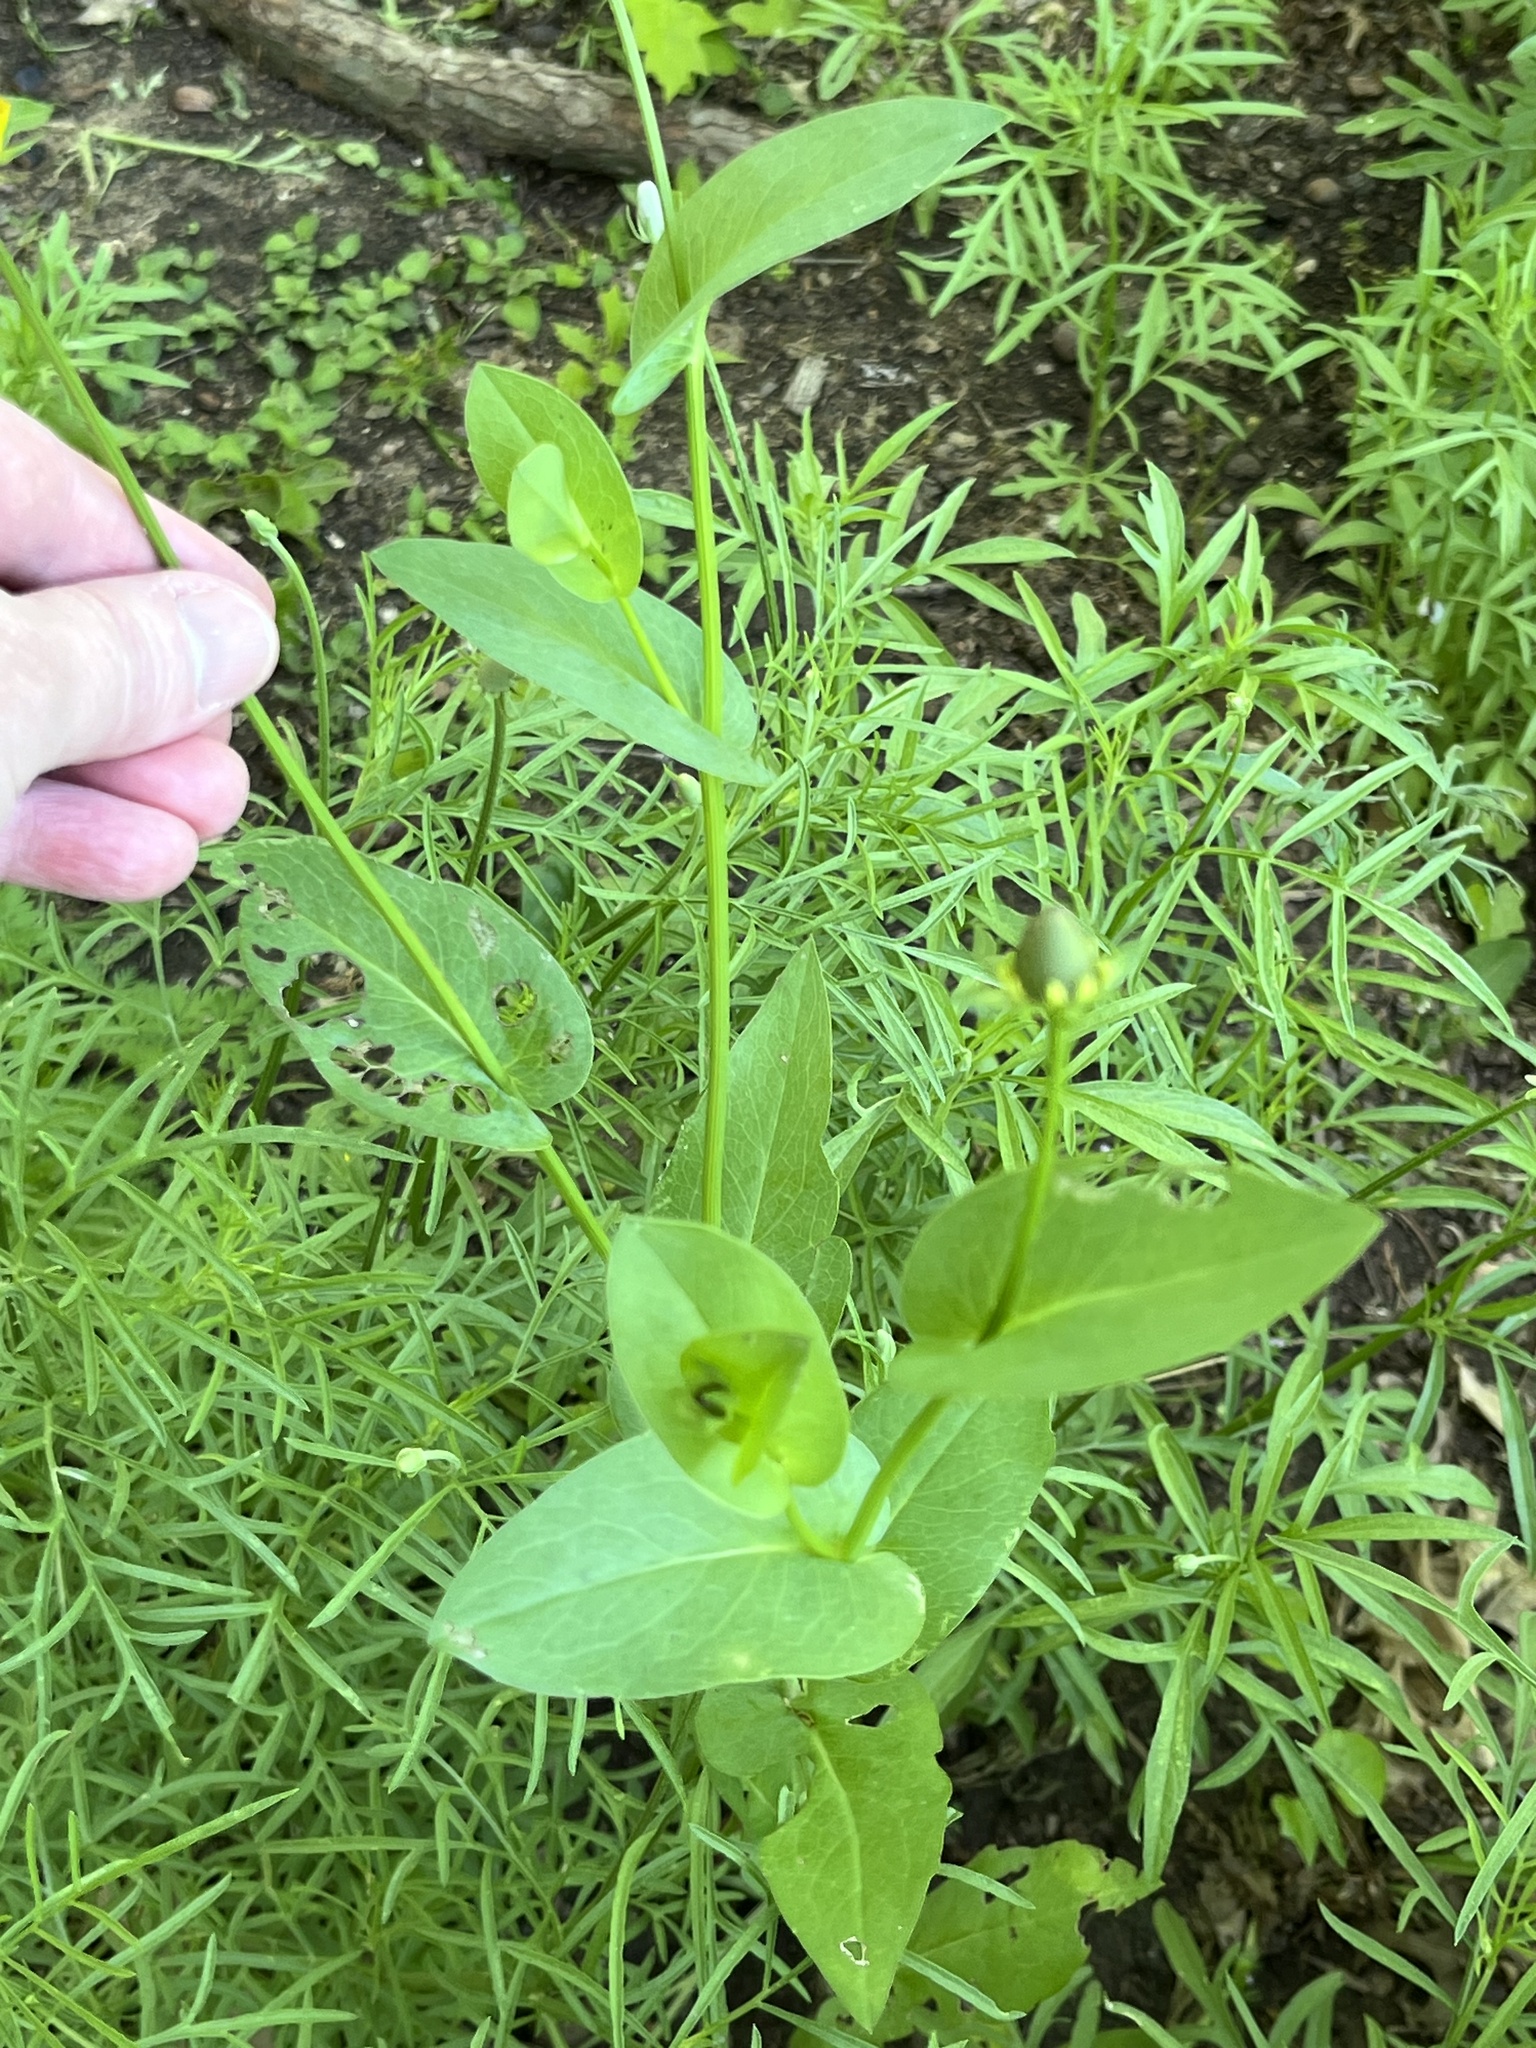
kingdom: Plantae
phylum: Tracheophyta
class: Magnoliopsida
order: Asterales
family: Asteraceae
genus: Rudbeckia
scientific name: Rudbeckia amplexicaulis
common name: Clasping-leaf coneflower
